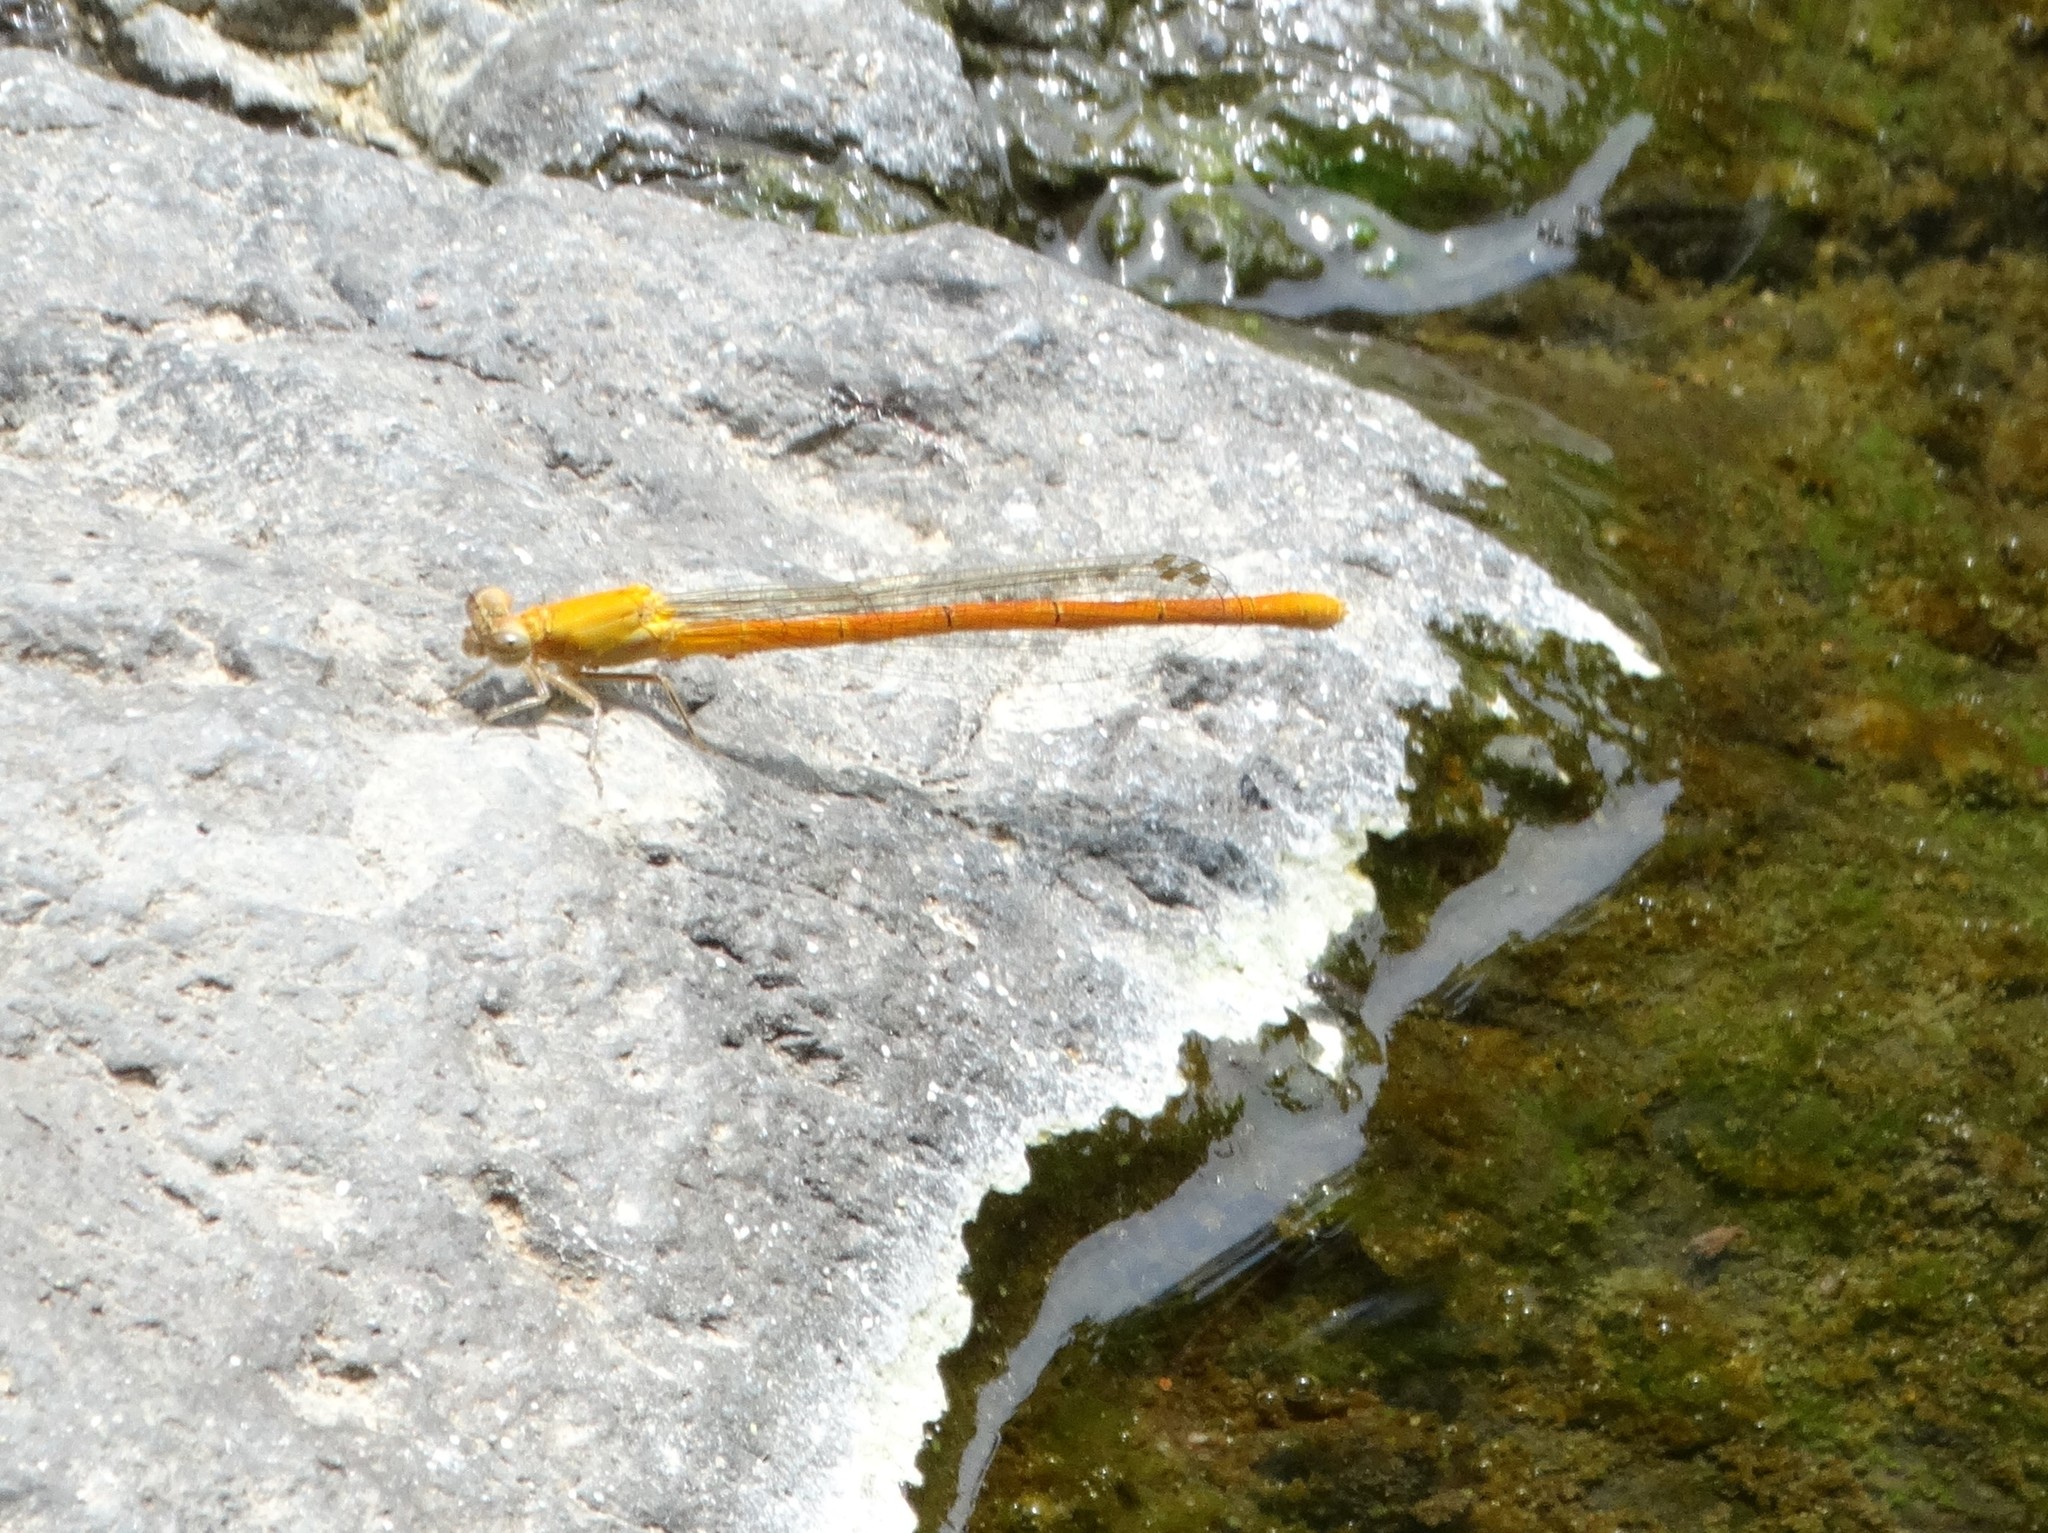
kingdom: Animalia
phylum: Arthropoda
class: Insecta
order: Odonata
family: Coenagrionidae
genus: Hesperagrion
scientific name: Hesperagrion heterodoxum
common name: Painted damsel
